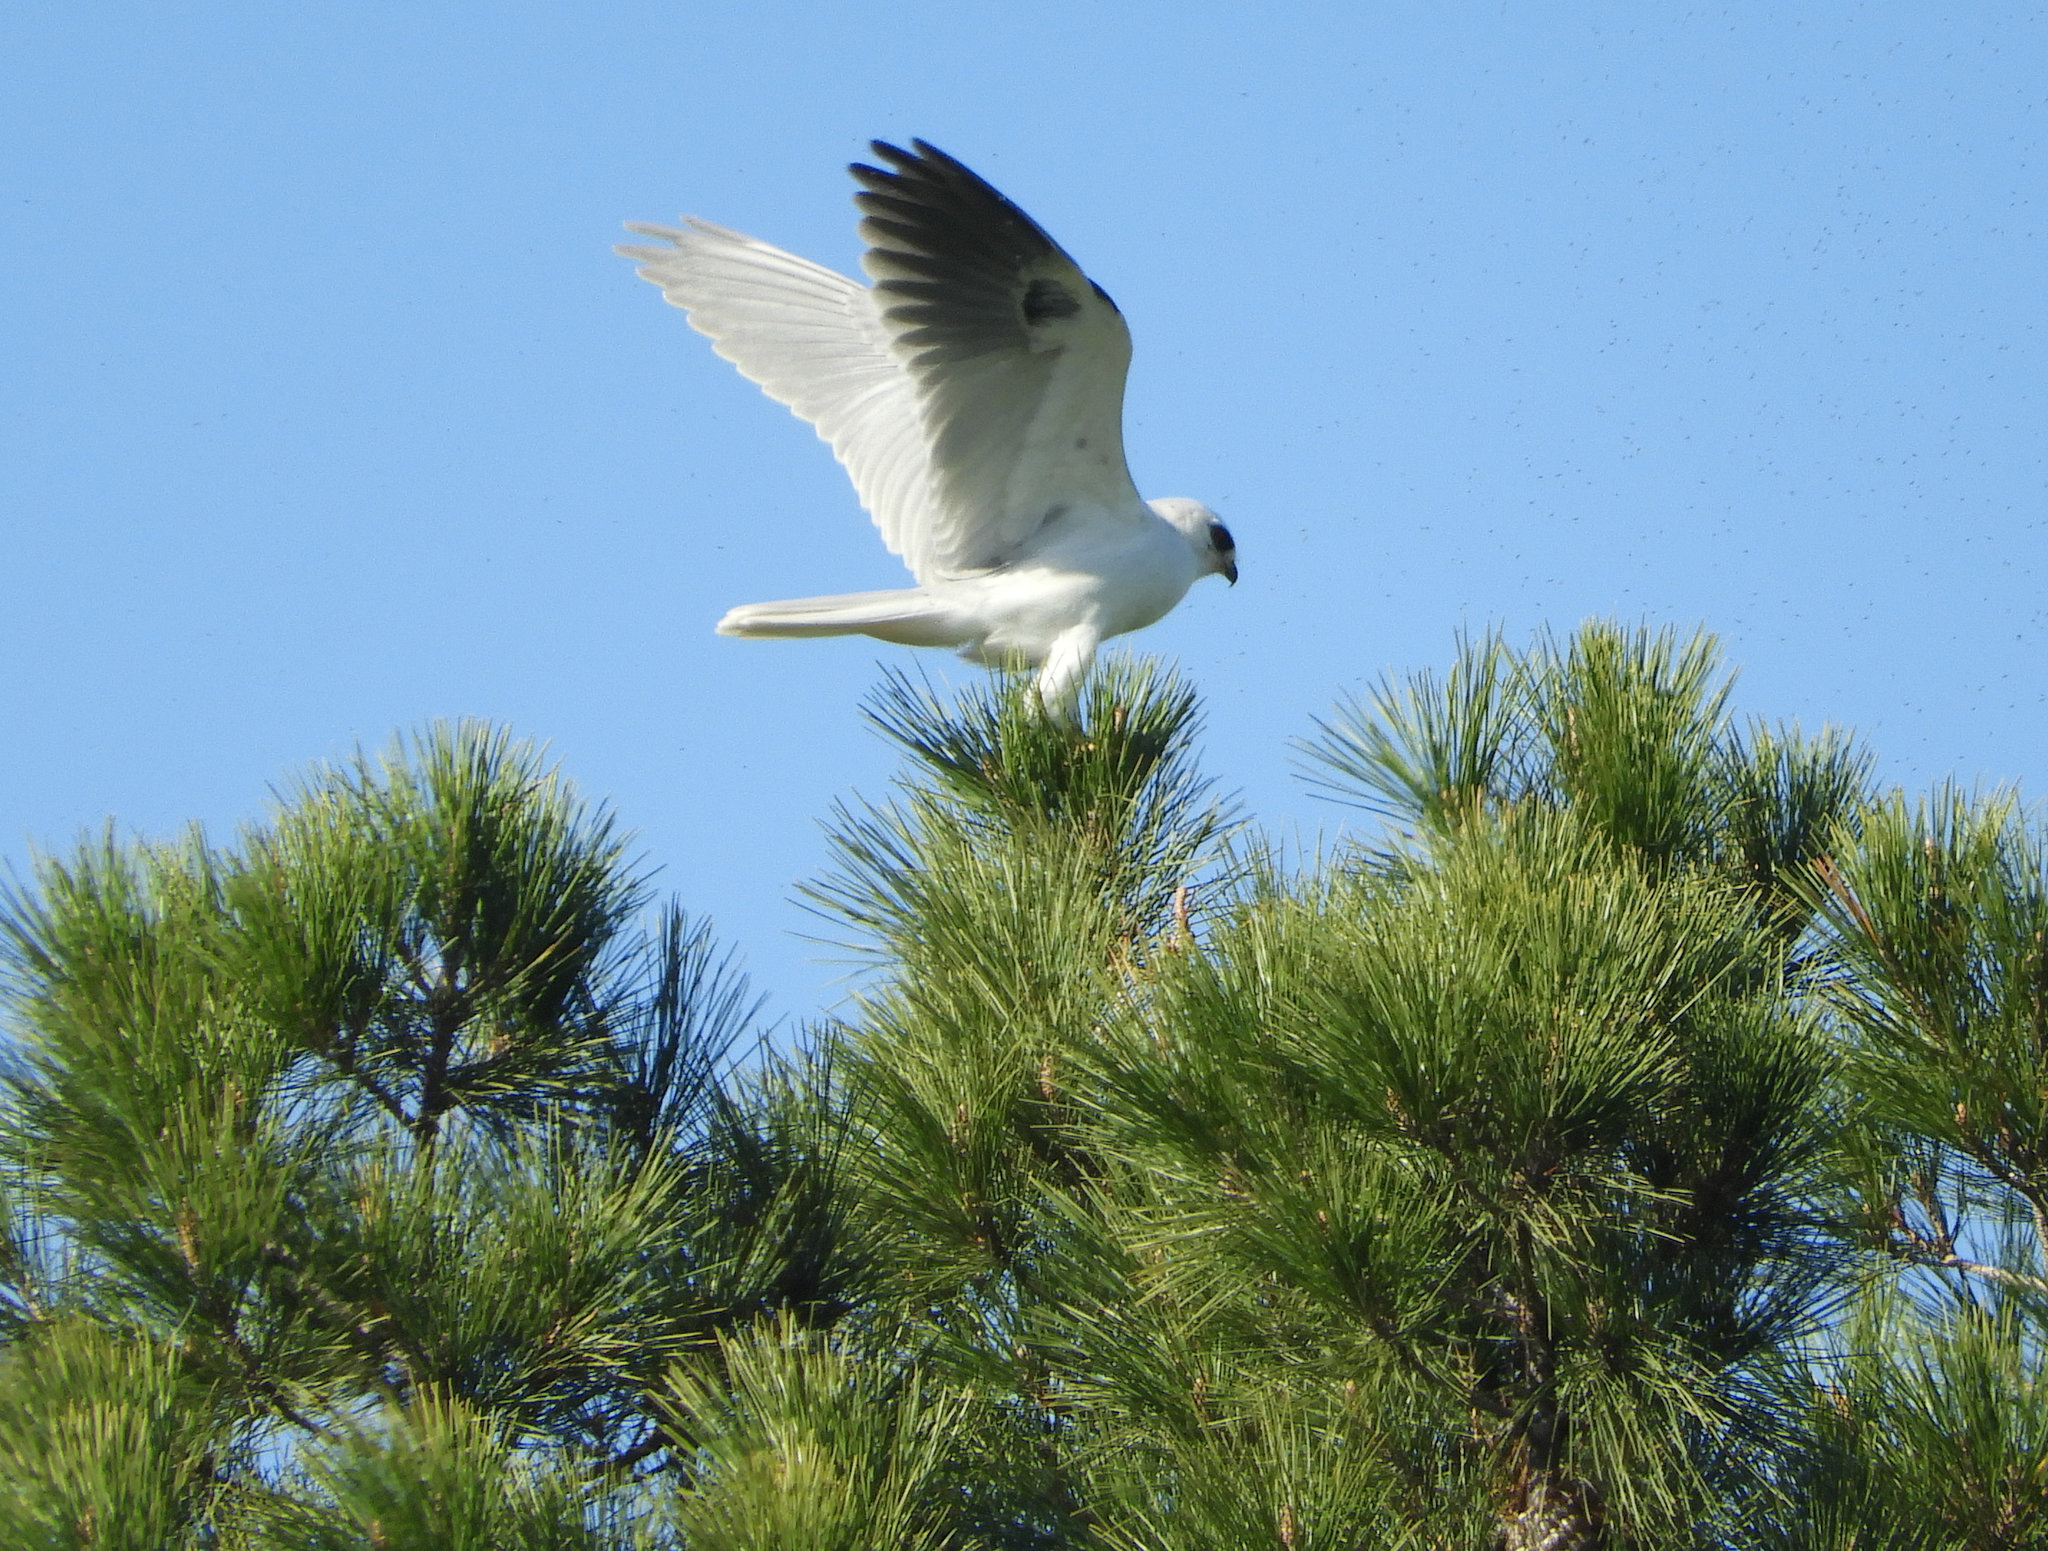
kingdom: Animalia
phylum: Chordata
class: Aves
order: Accipitriformes
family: Accipitridae
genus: Elanus
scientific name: Elanus leucurus
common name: White-tailed kite
